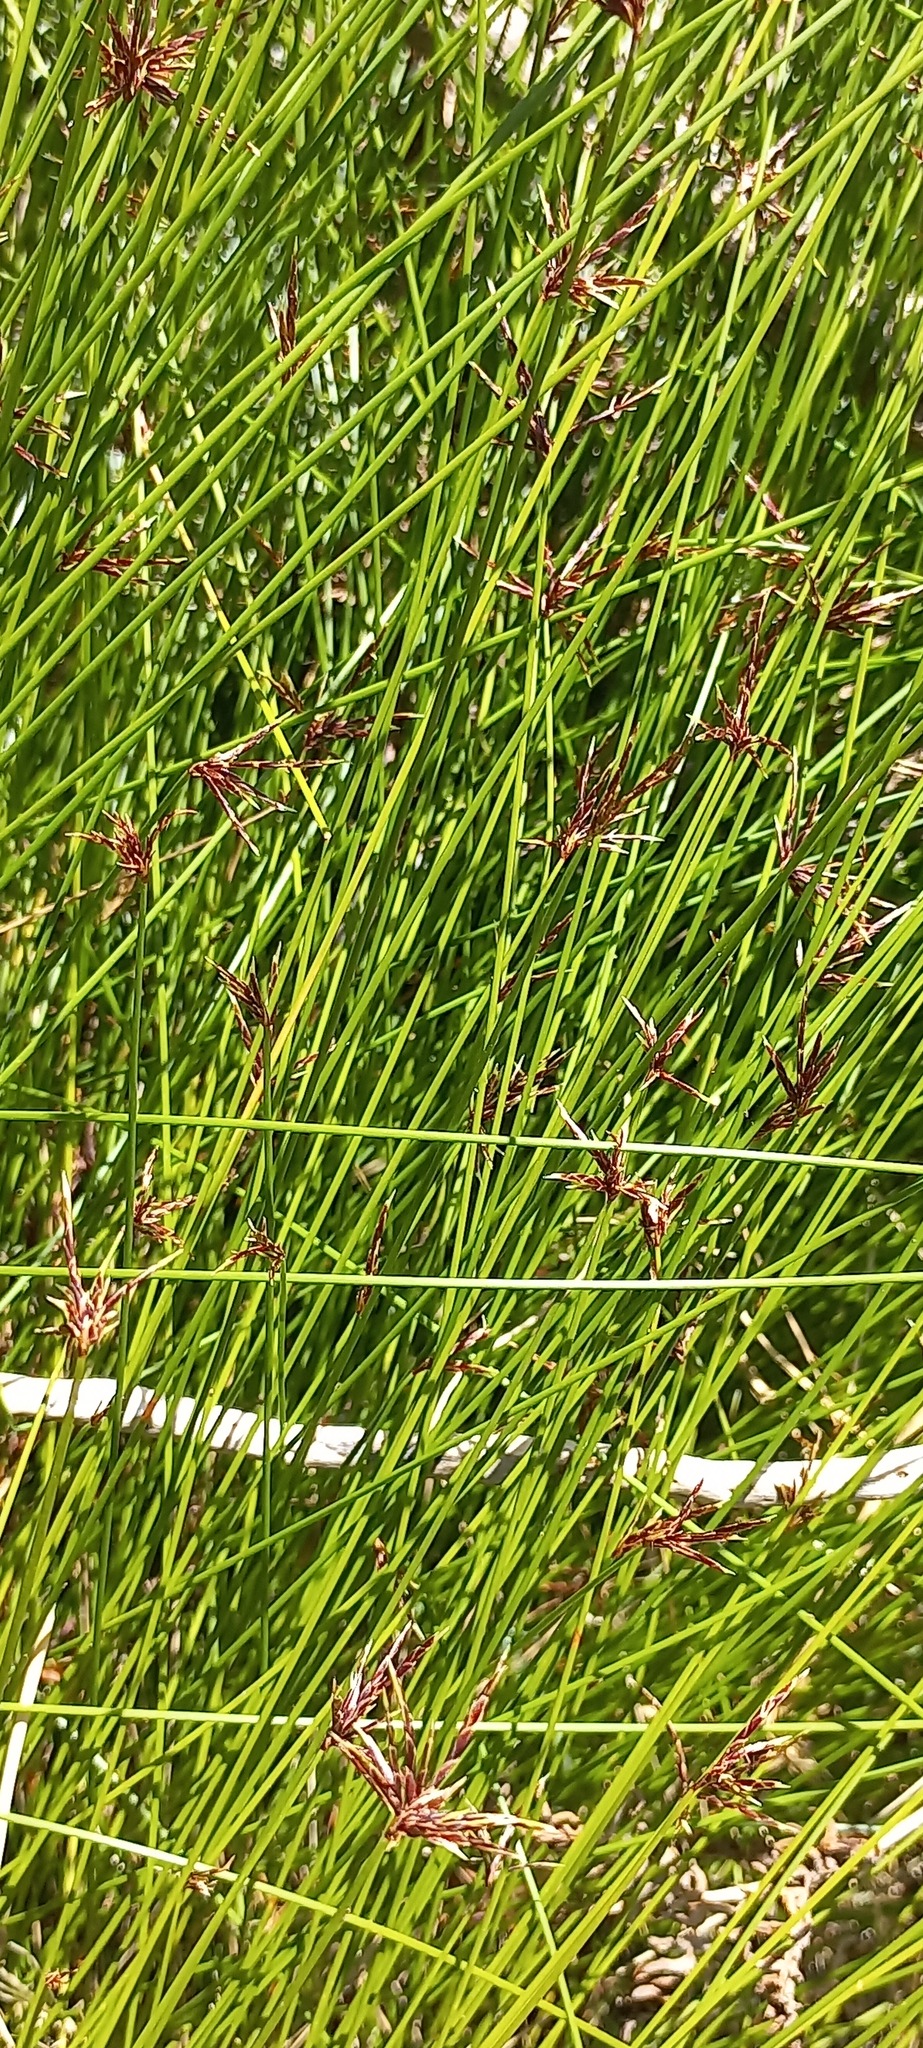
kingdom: Plantae
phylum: Tracheophyta
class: Liliopsida
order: Poales
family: Cyperaceae
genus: Ficinia
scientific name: Ficinia distans
